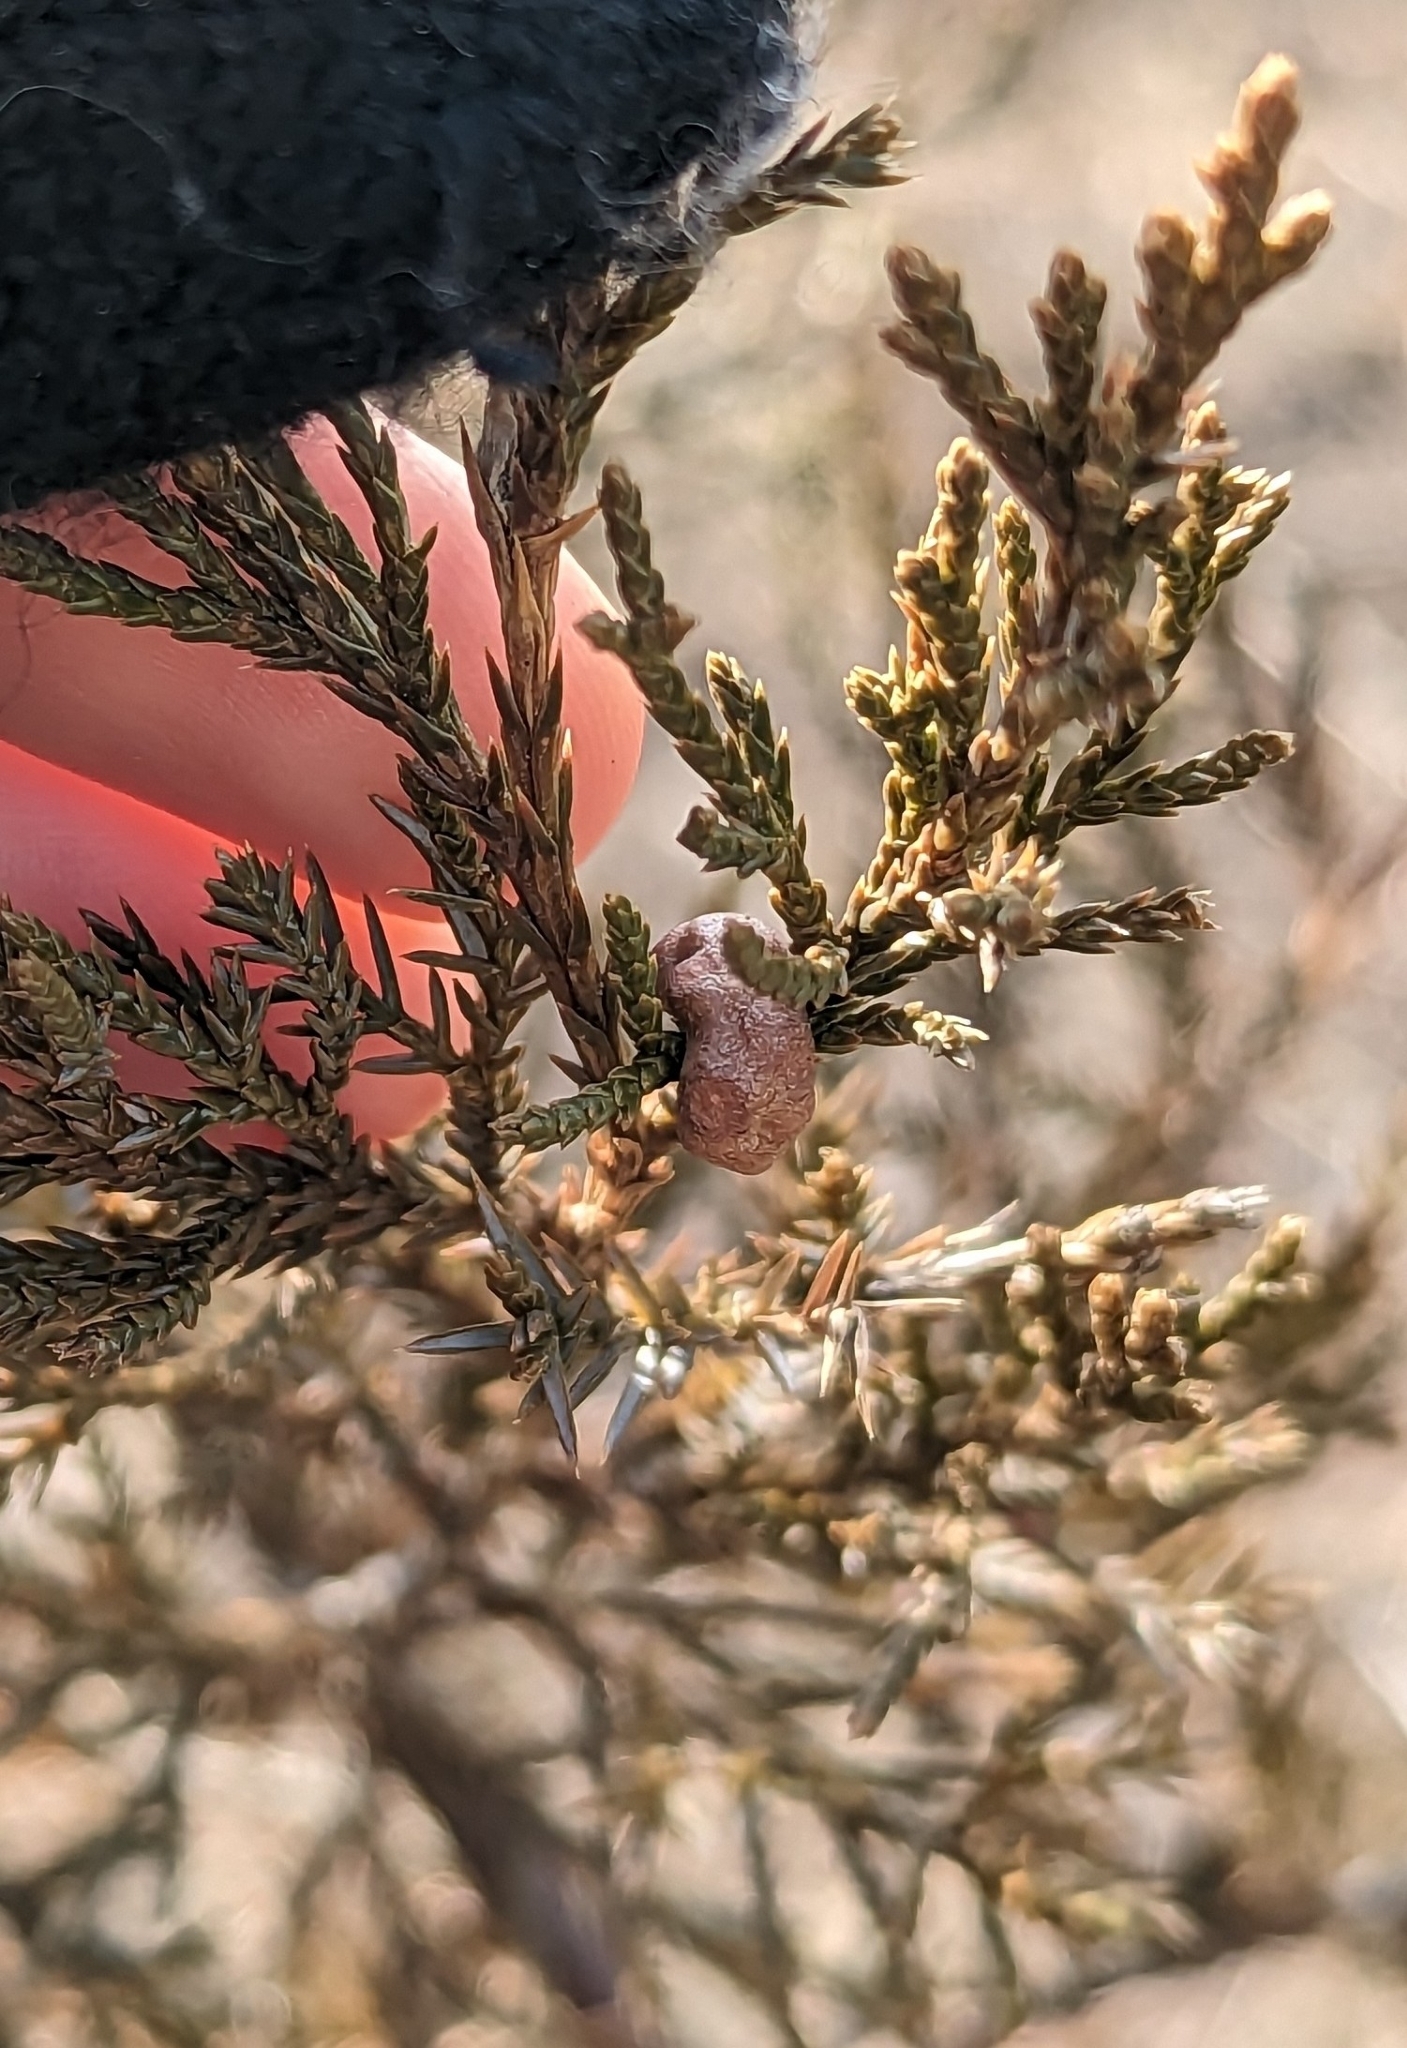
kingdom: Fungi
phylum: Basidiomycota
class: Pucciniomycetes
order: Pucciniales
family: Gymnosporangiaceae
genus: Gymnosporangium
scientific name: Gymnosporangium juniperi-virginianae
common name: Juniper-apple rust
